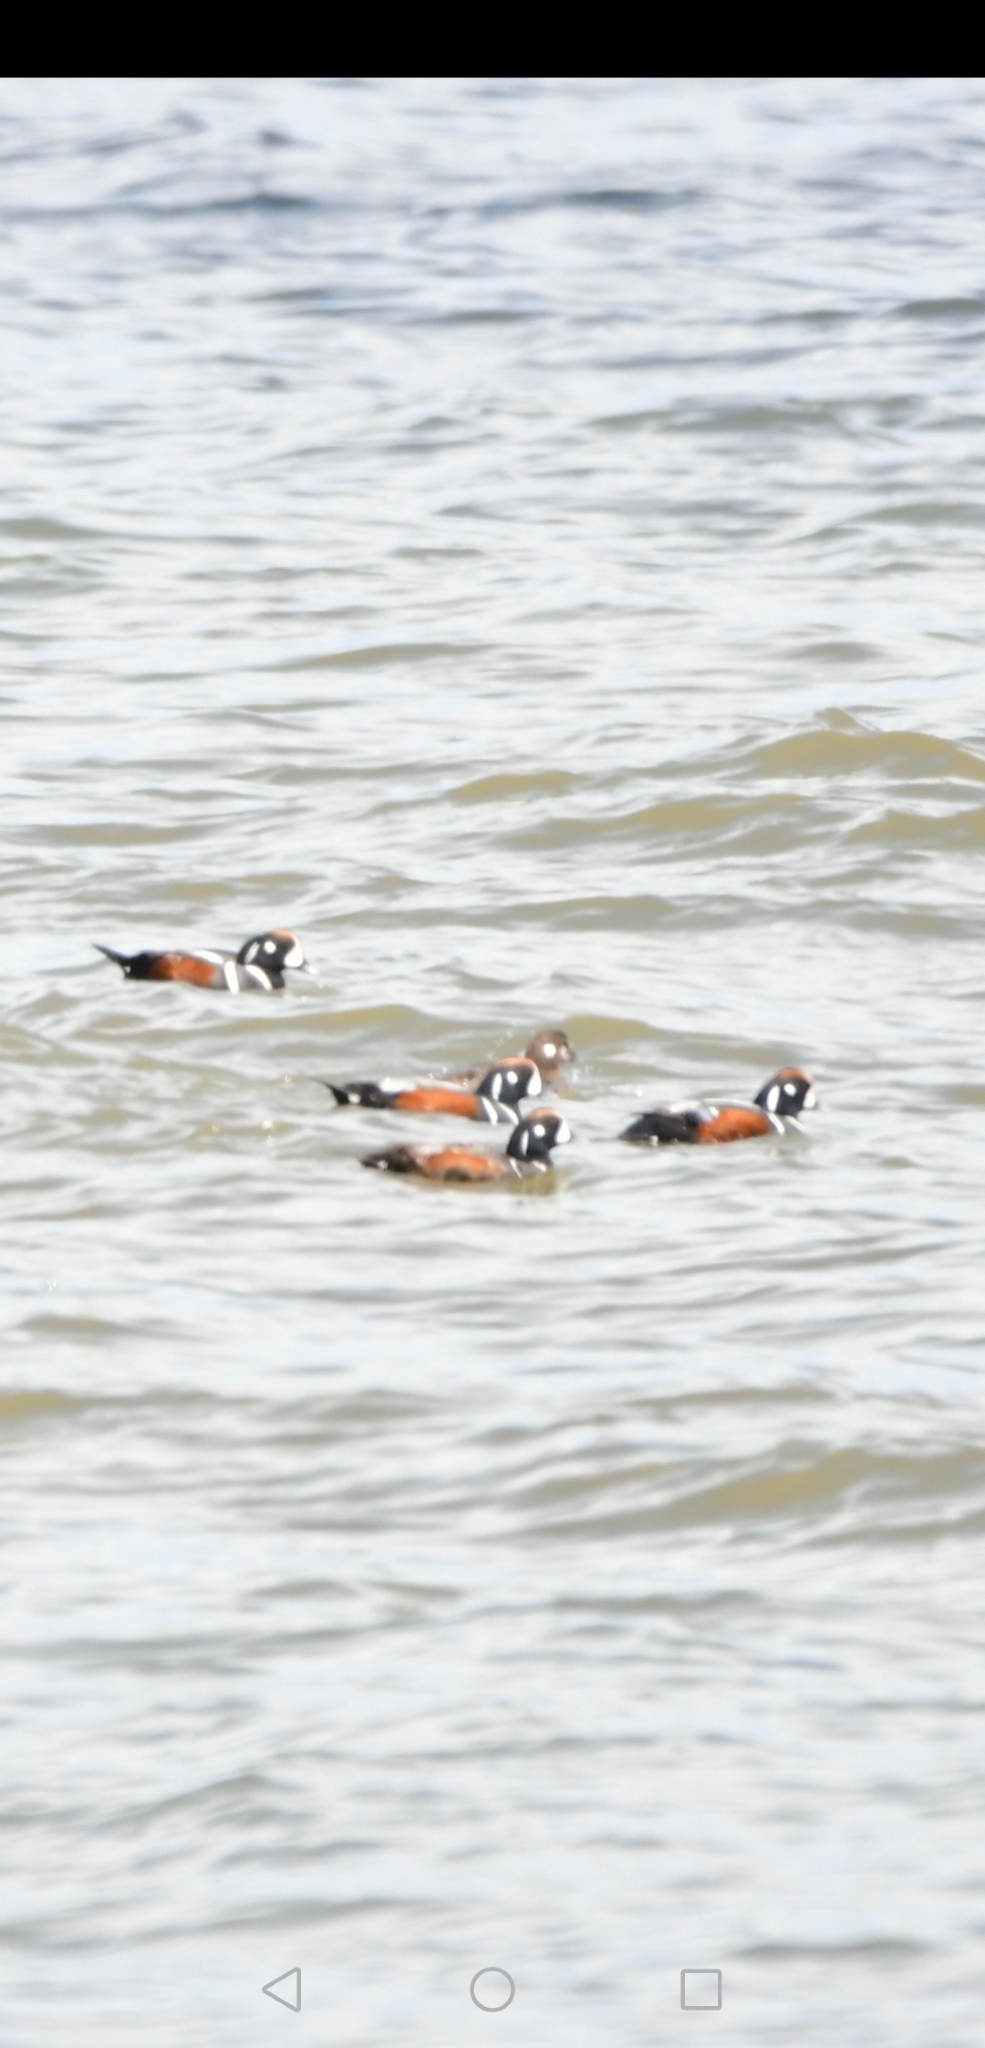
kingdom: Animalia
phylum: Chordata
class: Aves
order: Anseriformes
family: Anatidae
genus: Histrionicus
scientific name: Histrionicus histrionicus
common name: Harlequin duck
